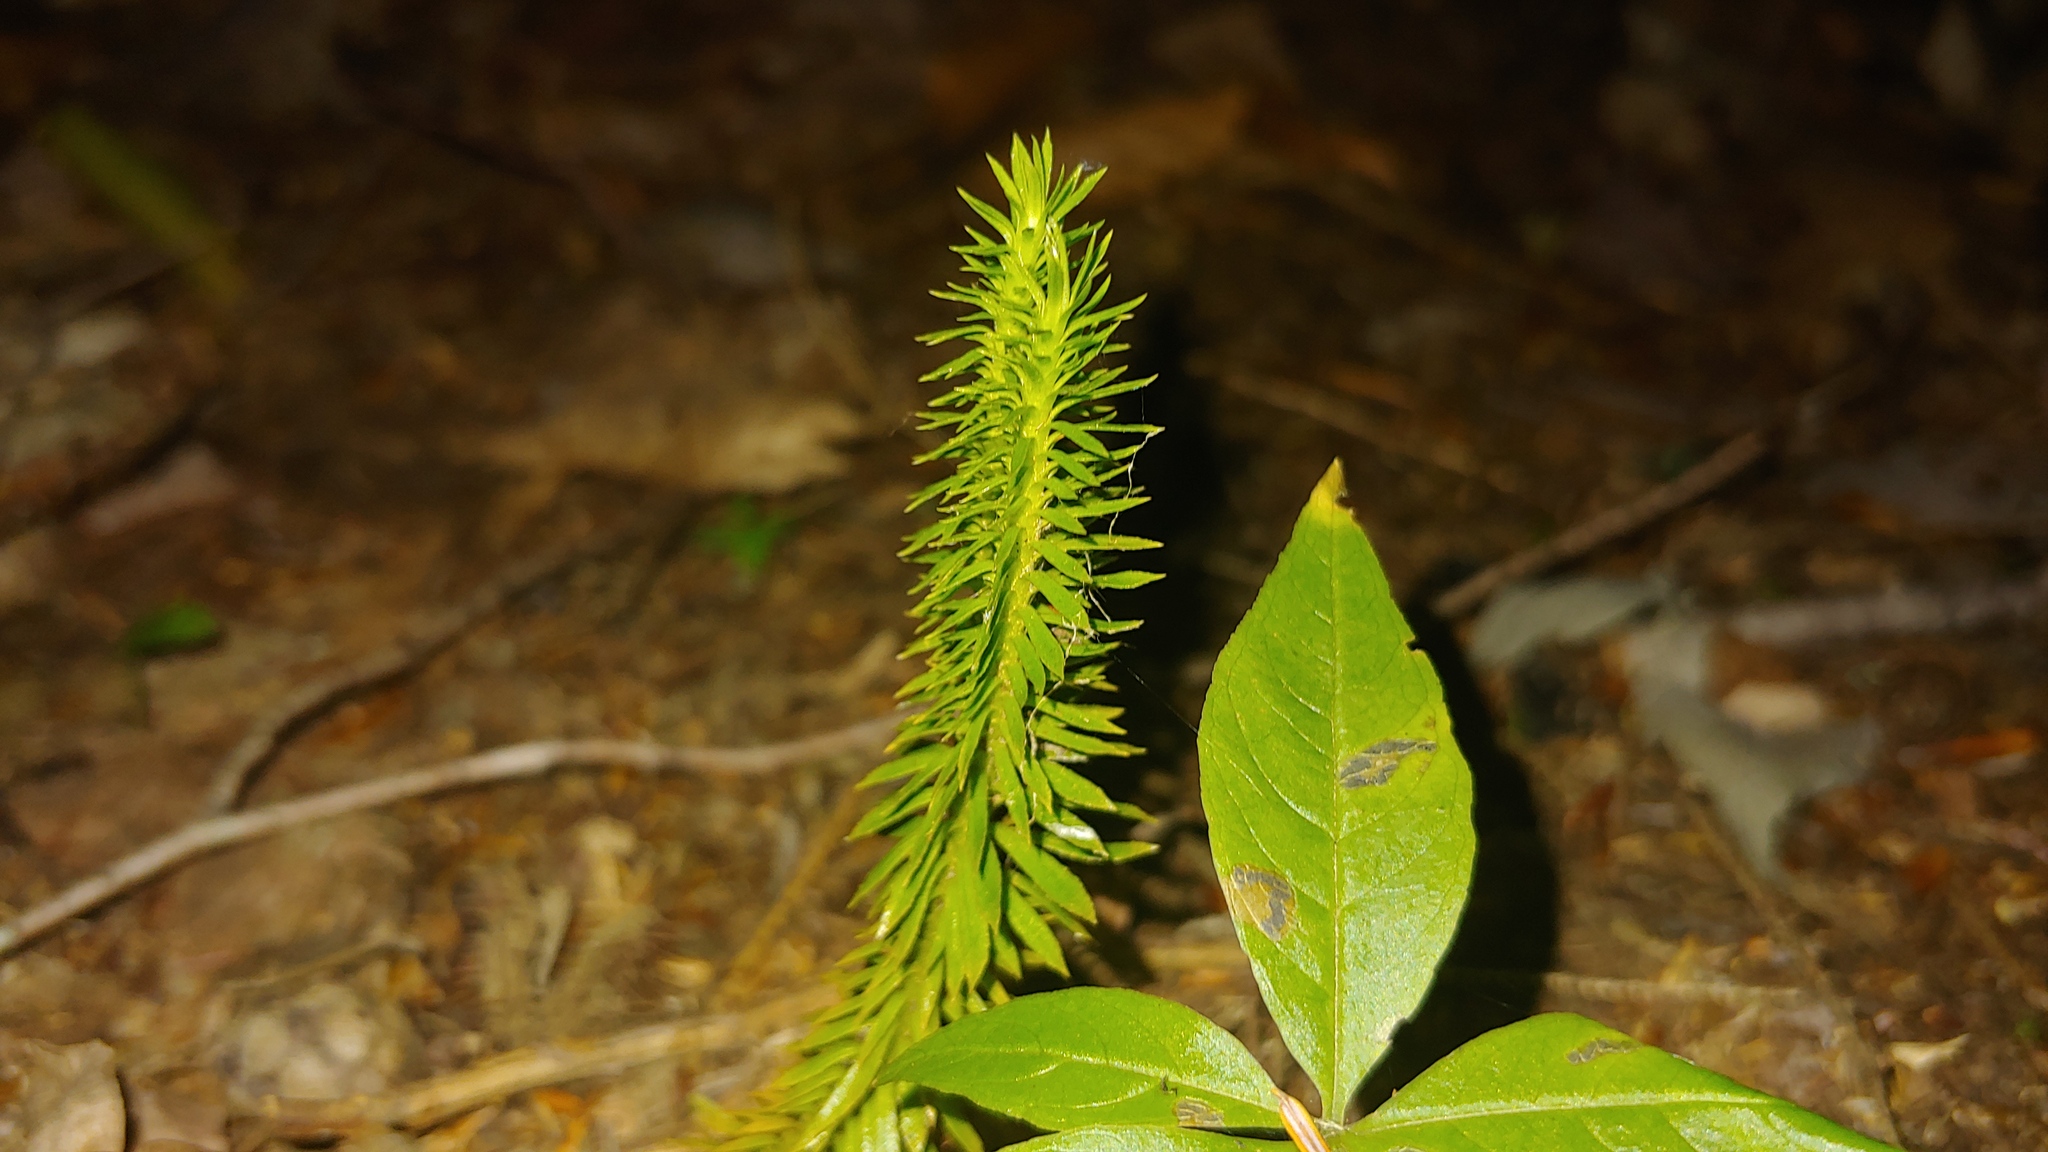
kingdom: Plantae
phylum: Tracheophyta
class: Lycopodiopsida
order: Lycopodiales
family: Lycopodiaceae
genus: Huperzia
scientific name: Huperzia lucidula
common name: Shining clubmoss
